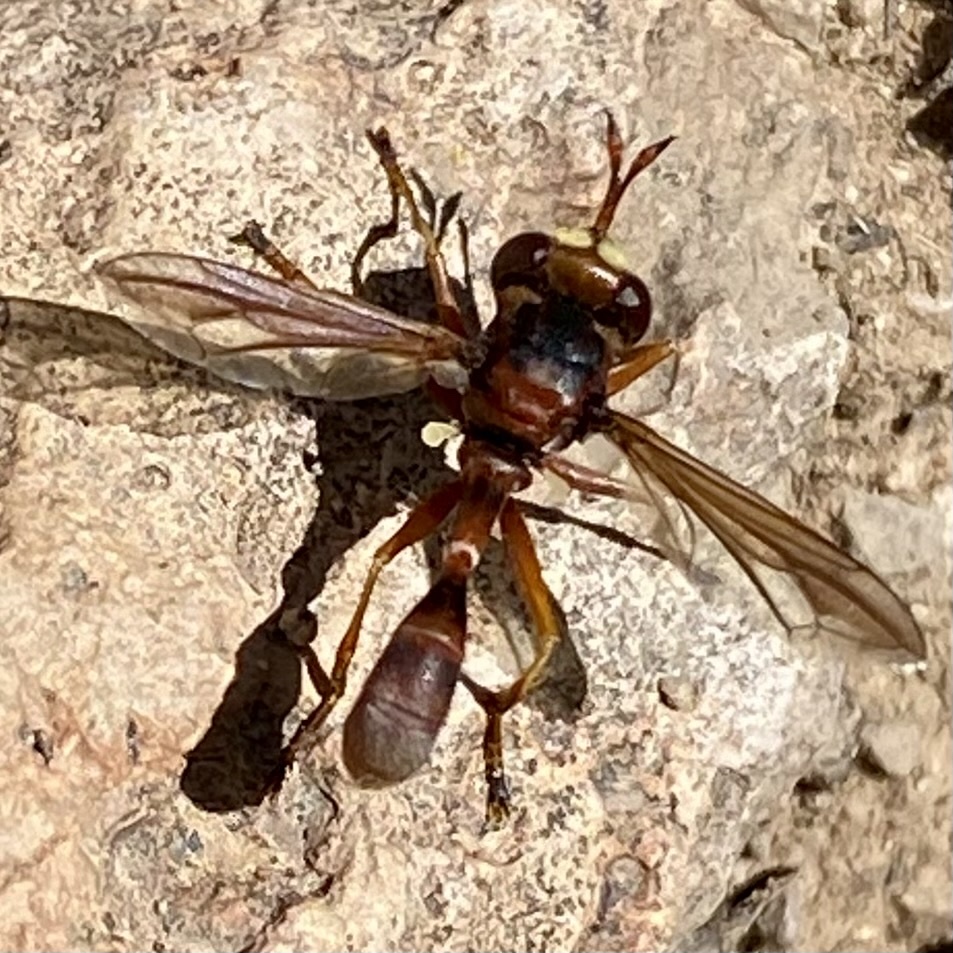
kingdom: Animalia
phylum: Arthropoda
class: Insecta
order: Diptera
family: Conopidae
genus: Physocephala
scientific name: Physocephala
